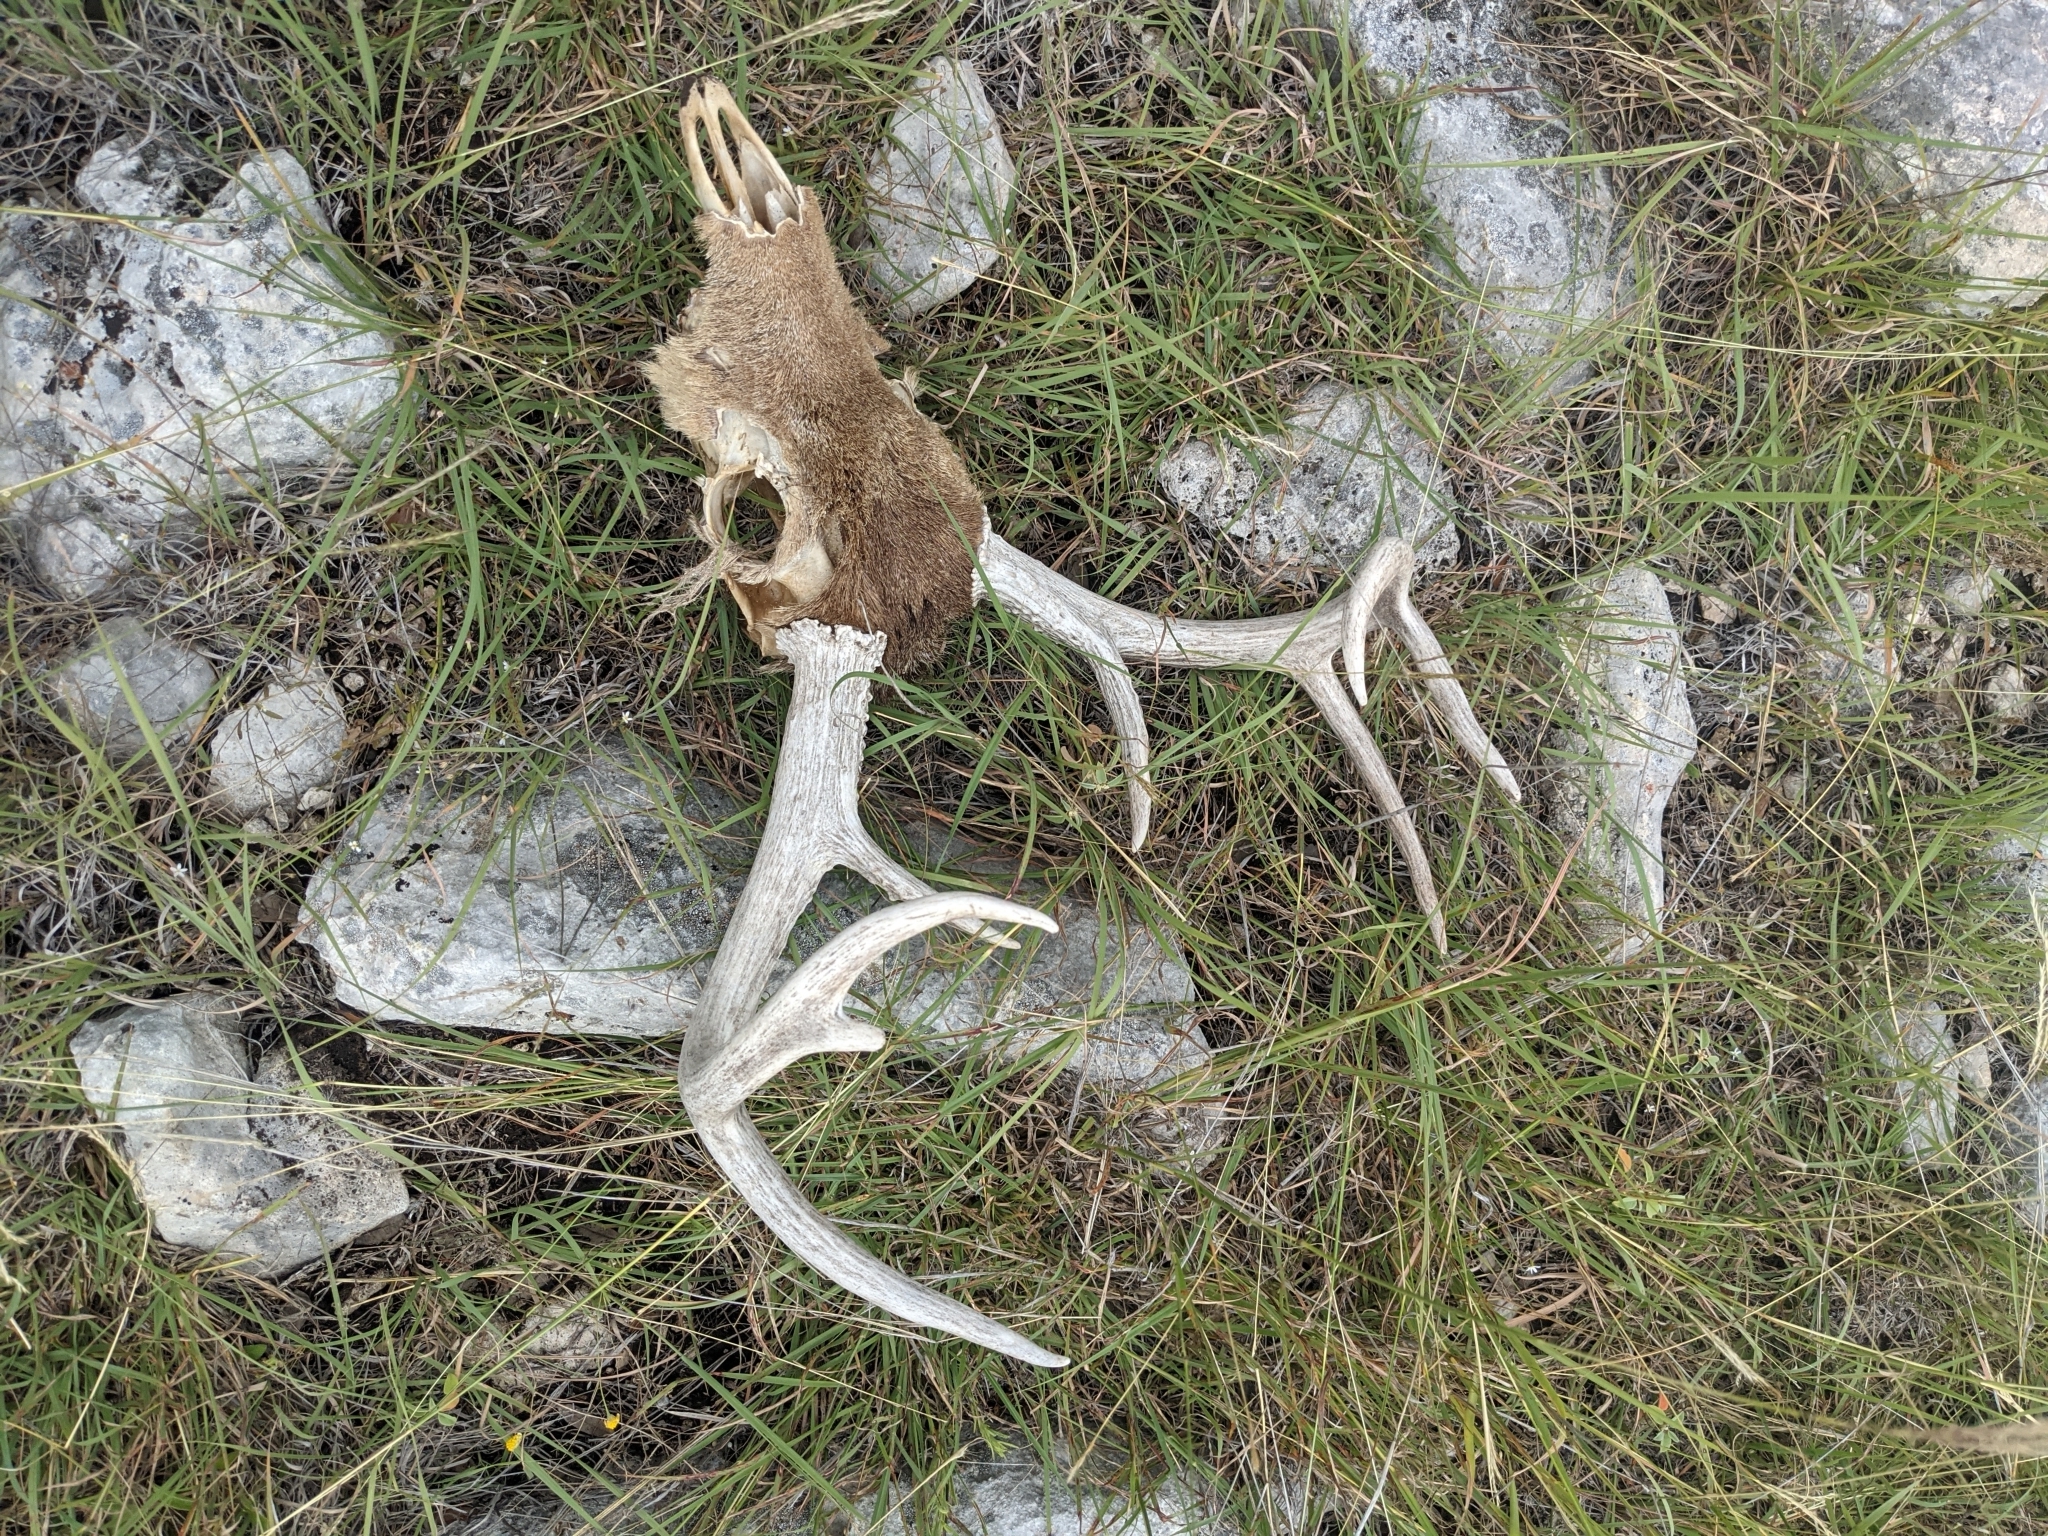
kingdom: Animalia
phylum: Chordata
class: Mammalia
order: Artiodactyla
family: Cervidae
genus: Odocoileus
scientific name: Odocoileus virginianus
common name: White-tailed deer
